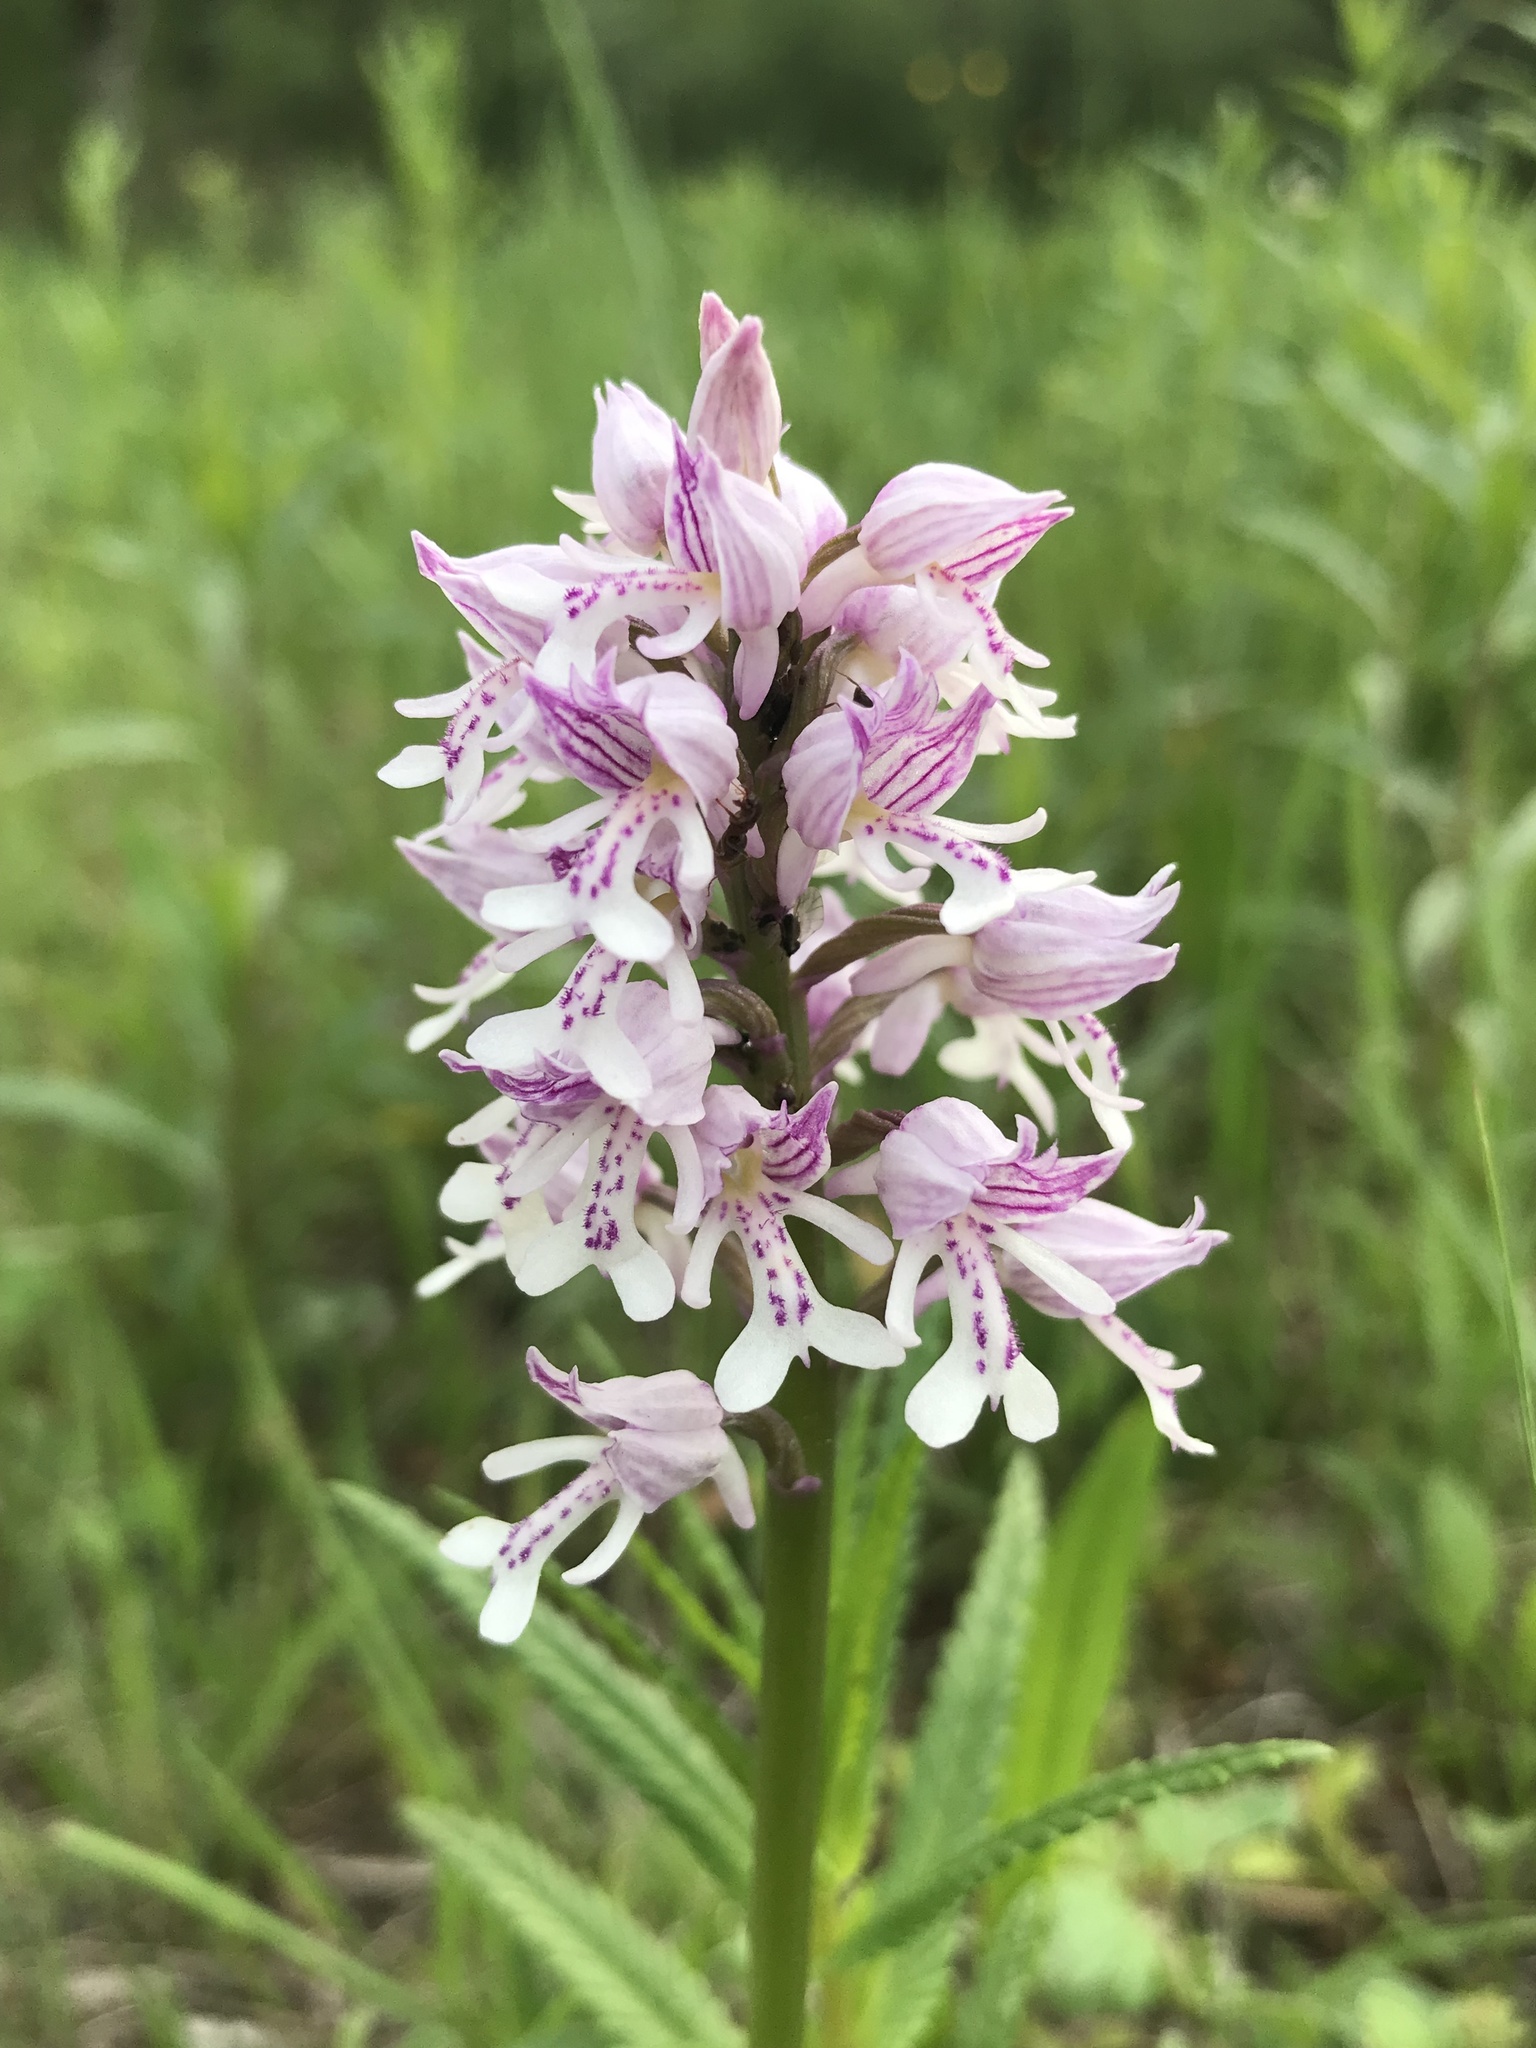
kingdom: Plantae
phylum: Tracheophyta
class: Liliopsida
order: Asparagales
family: Orchidaceae
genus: Orchis
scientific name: Orchis militaris
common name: Military orchid
